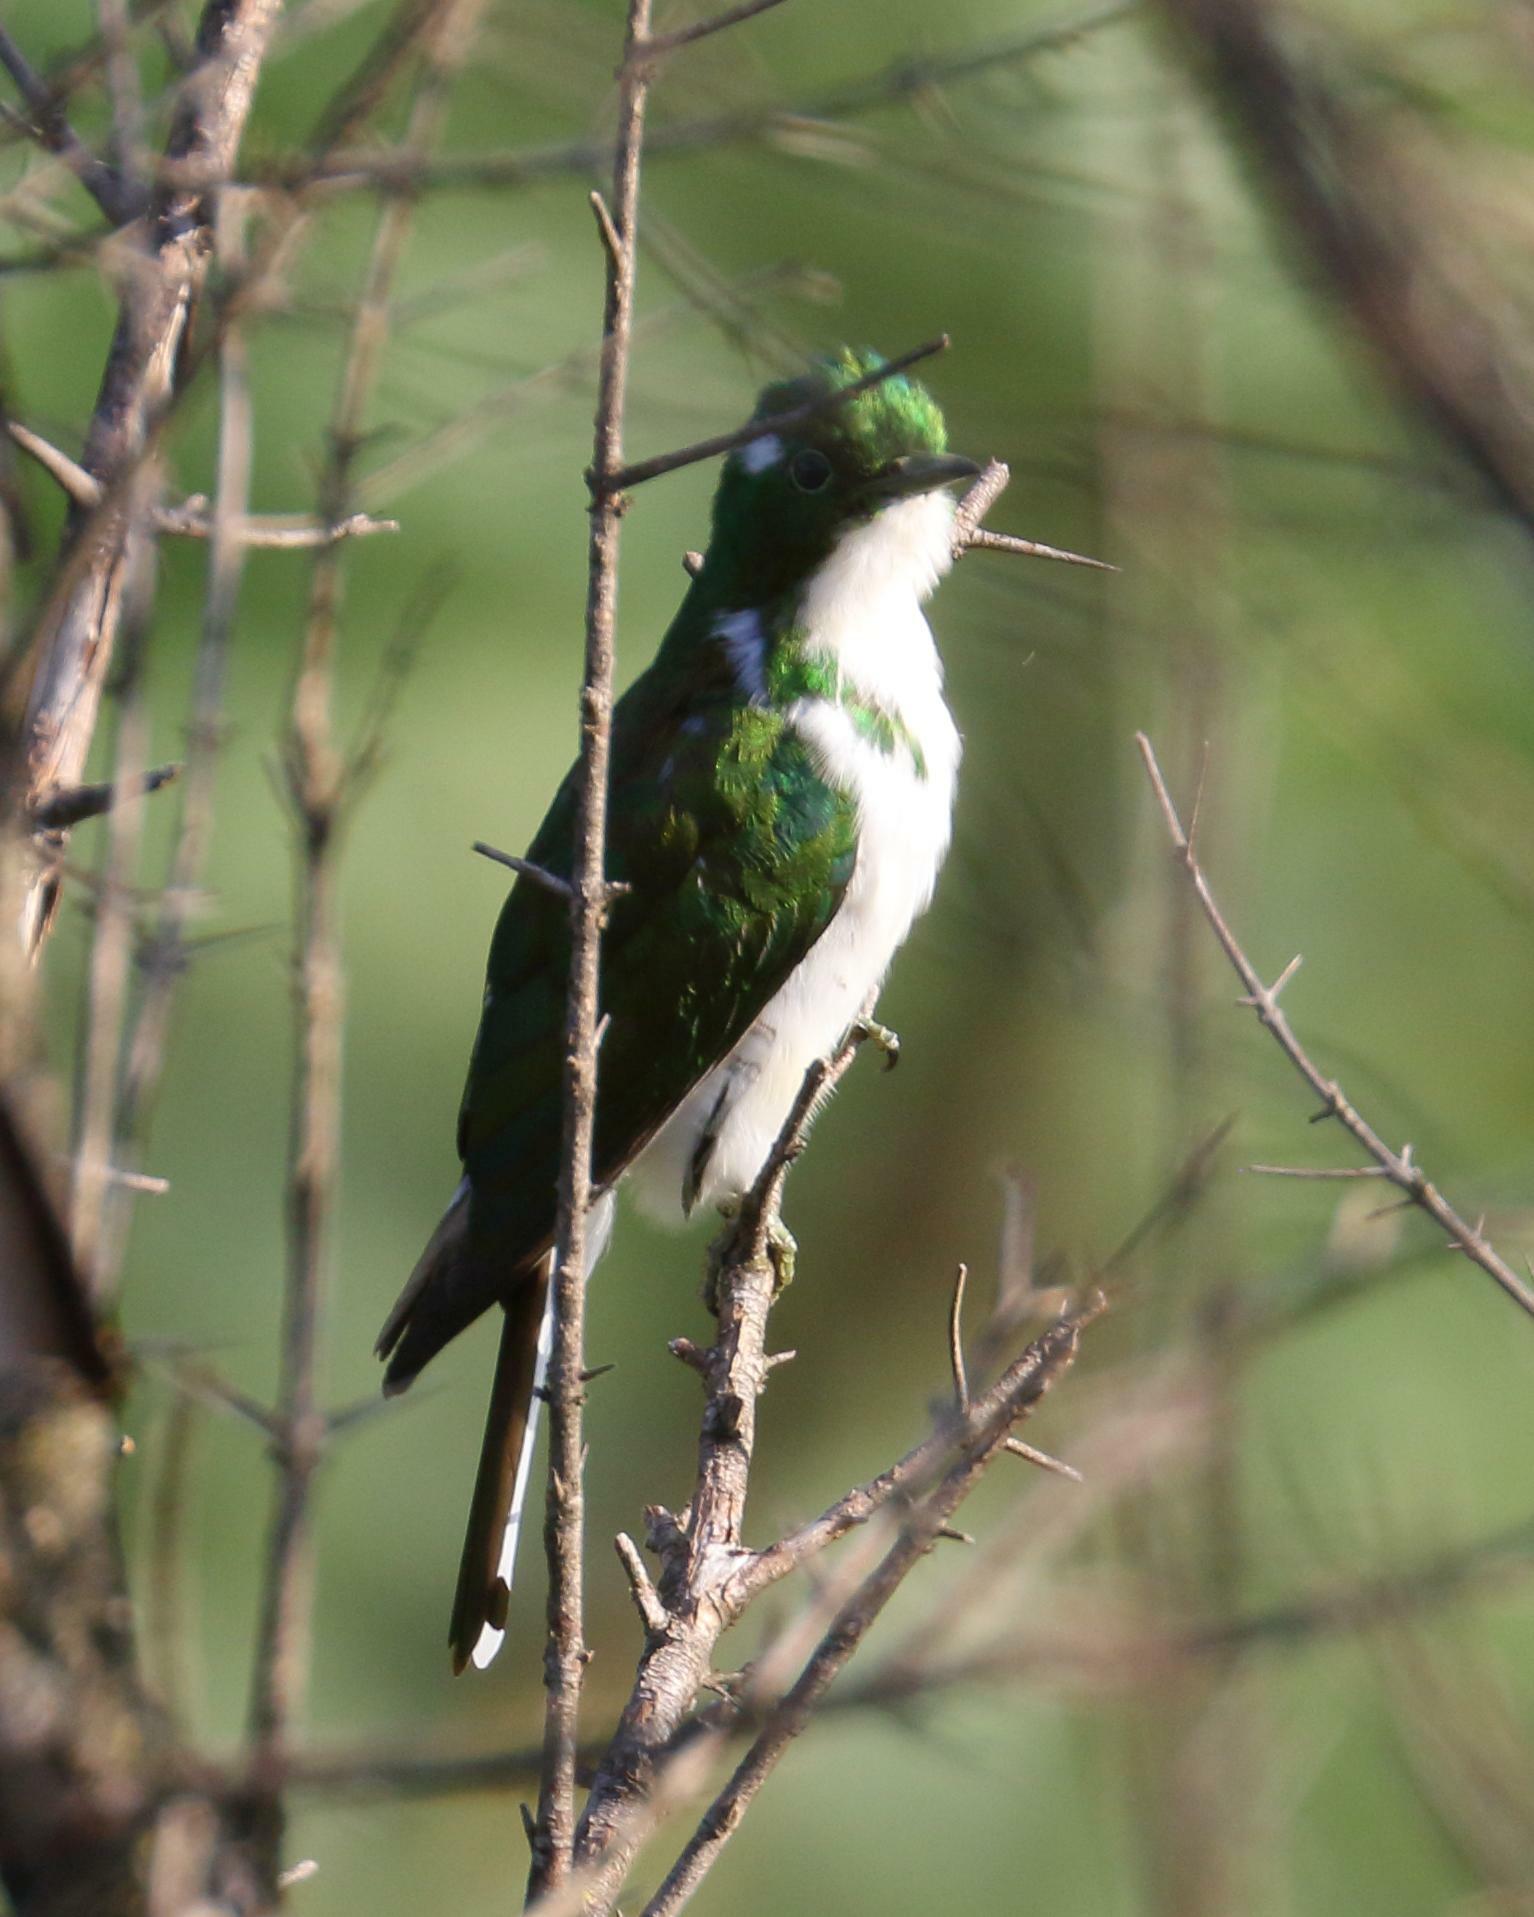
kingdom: Animalia
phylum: Chordata
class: Aves
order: Cuculiformes
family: Cuculidae
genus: Chrysococcyx
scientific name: Chrysococcyx klaas
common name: Klaas's cuckoo
